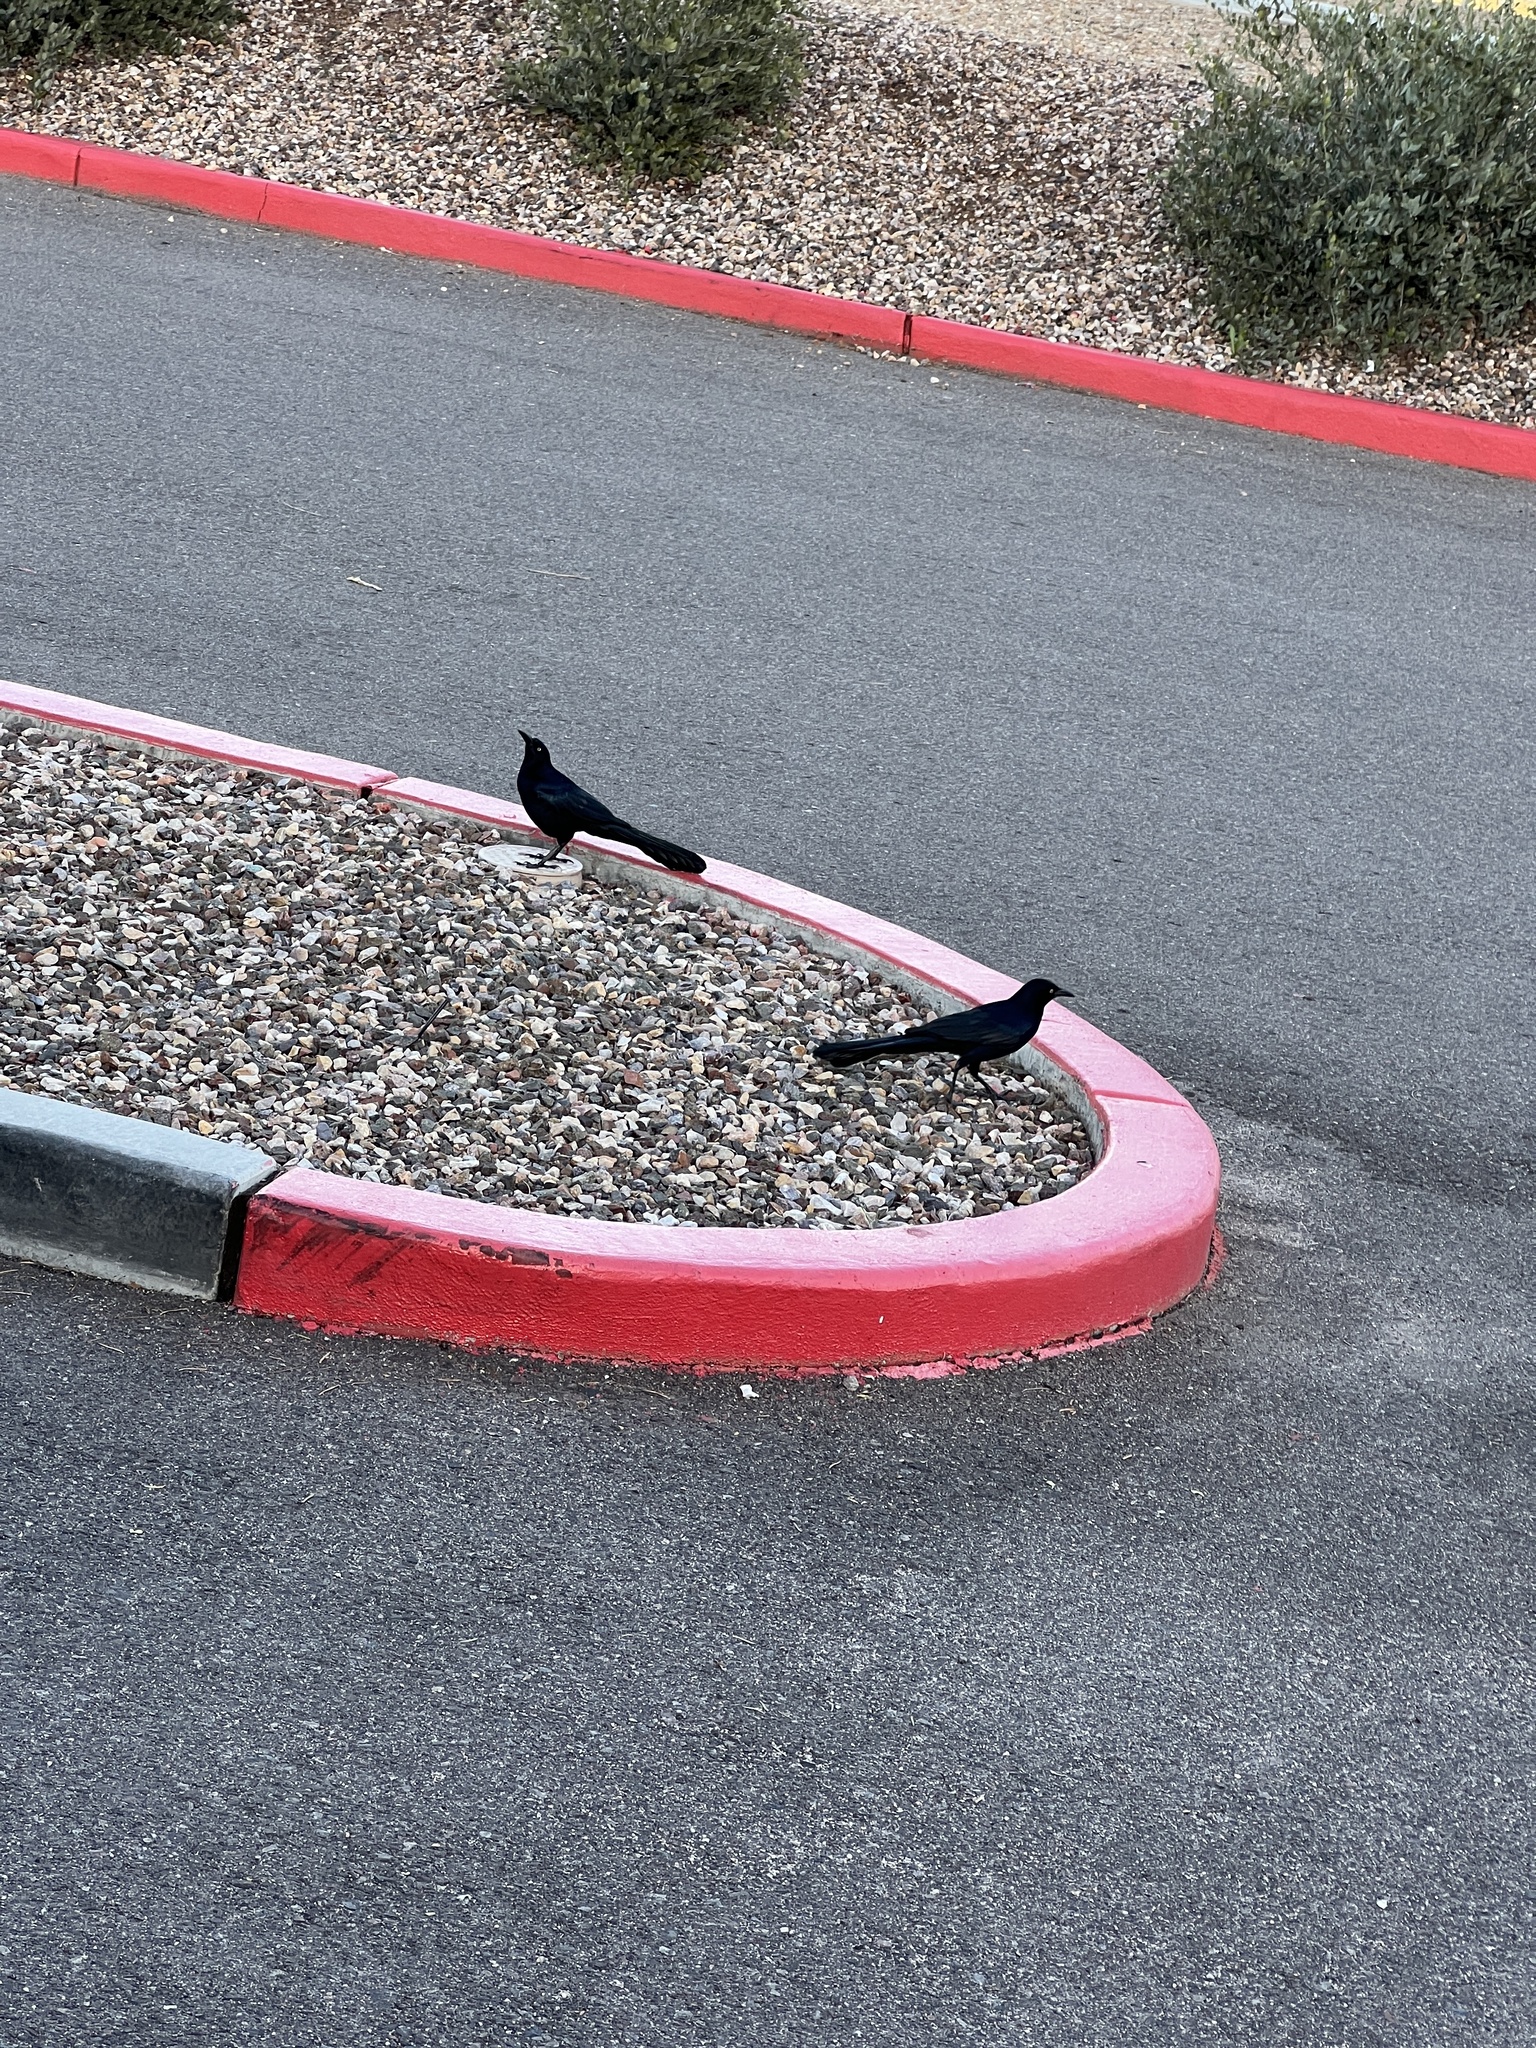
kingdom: Animalia
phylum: Chordata
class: Aves
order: Passeriformes
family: Icteridae
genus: Quiscalus
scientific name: Quiscalus mexicanus
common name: Great-tailed grackle
